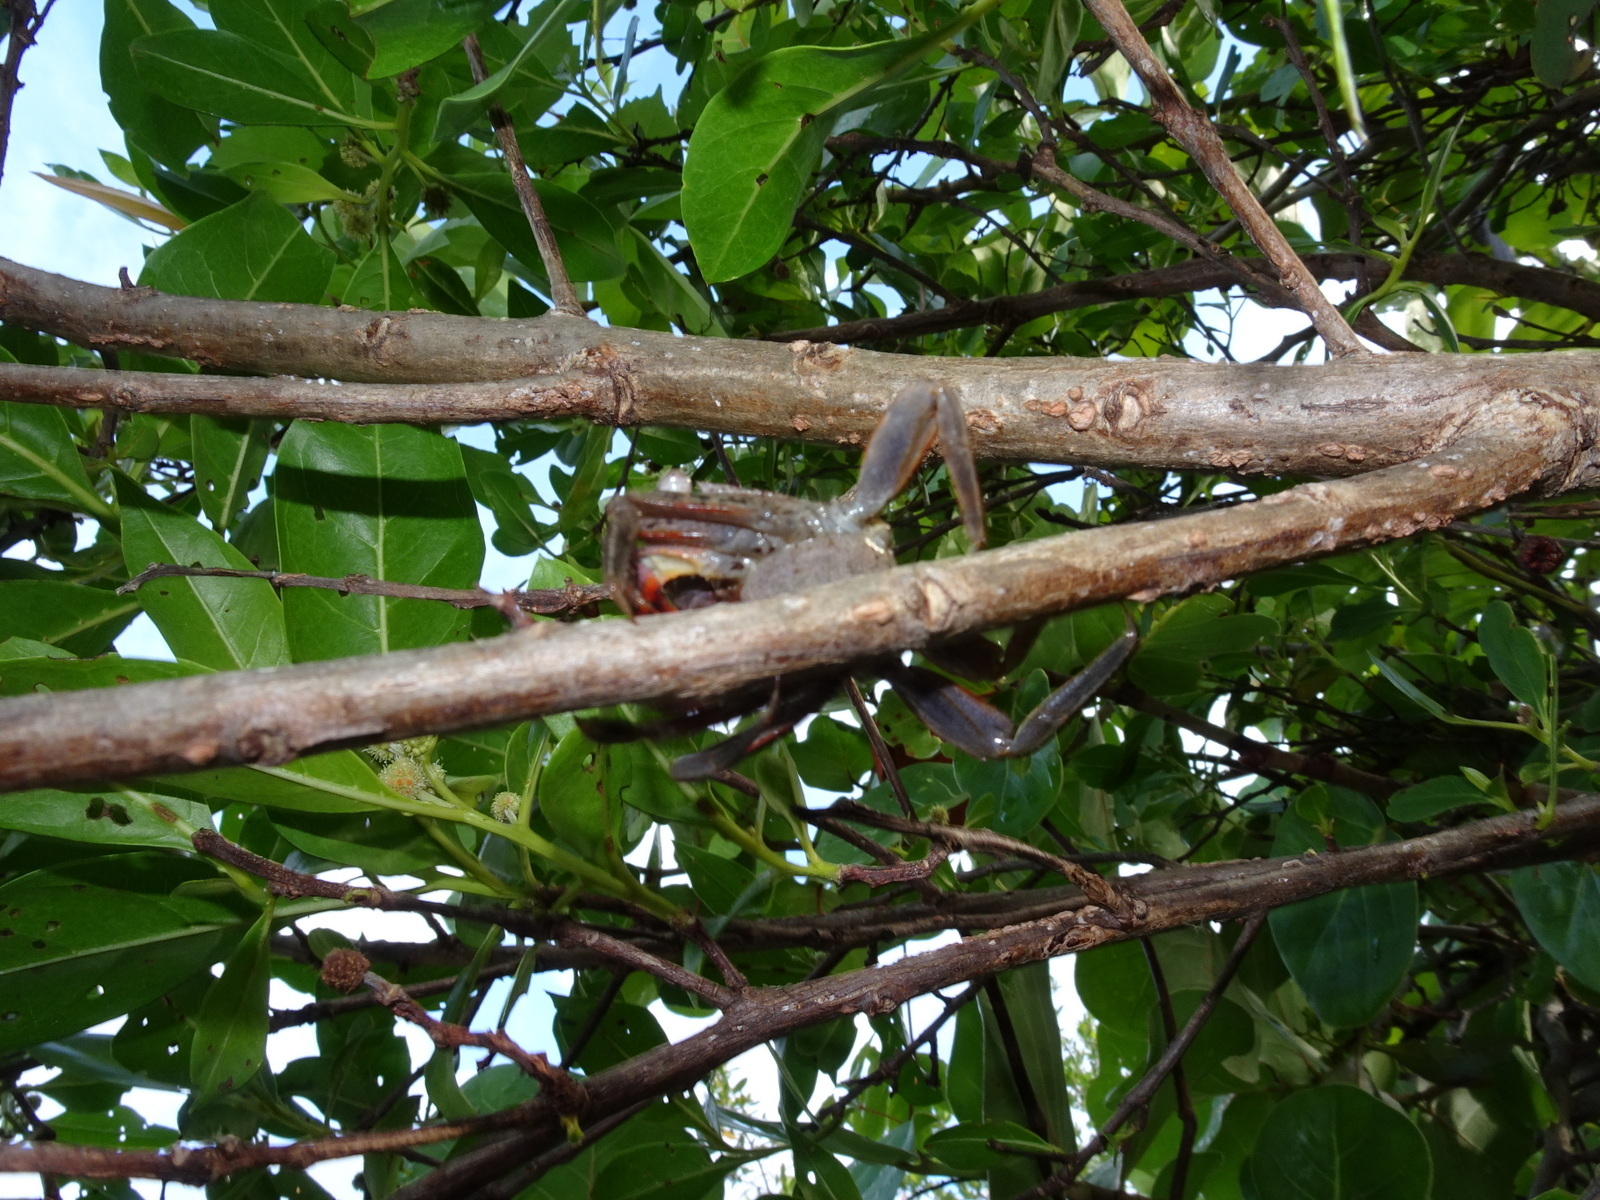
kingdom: Animalia
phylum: Arthropoda
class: Malacostraca
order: Decapoda
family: Sesarmidae
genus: Aratus
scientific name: Aratus pisonii
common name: Mangrove crab
